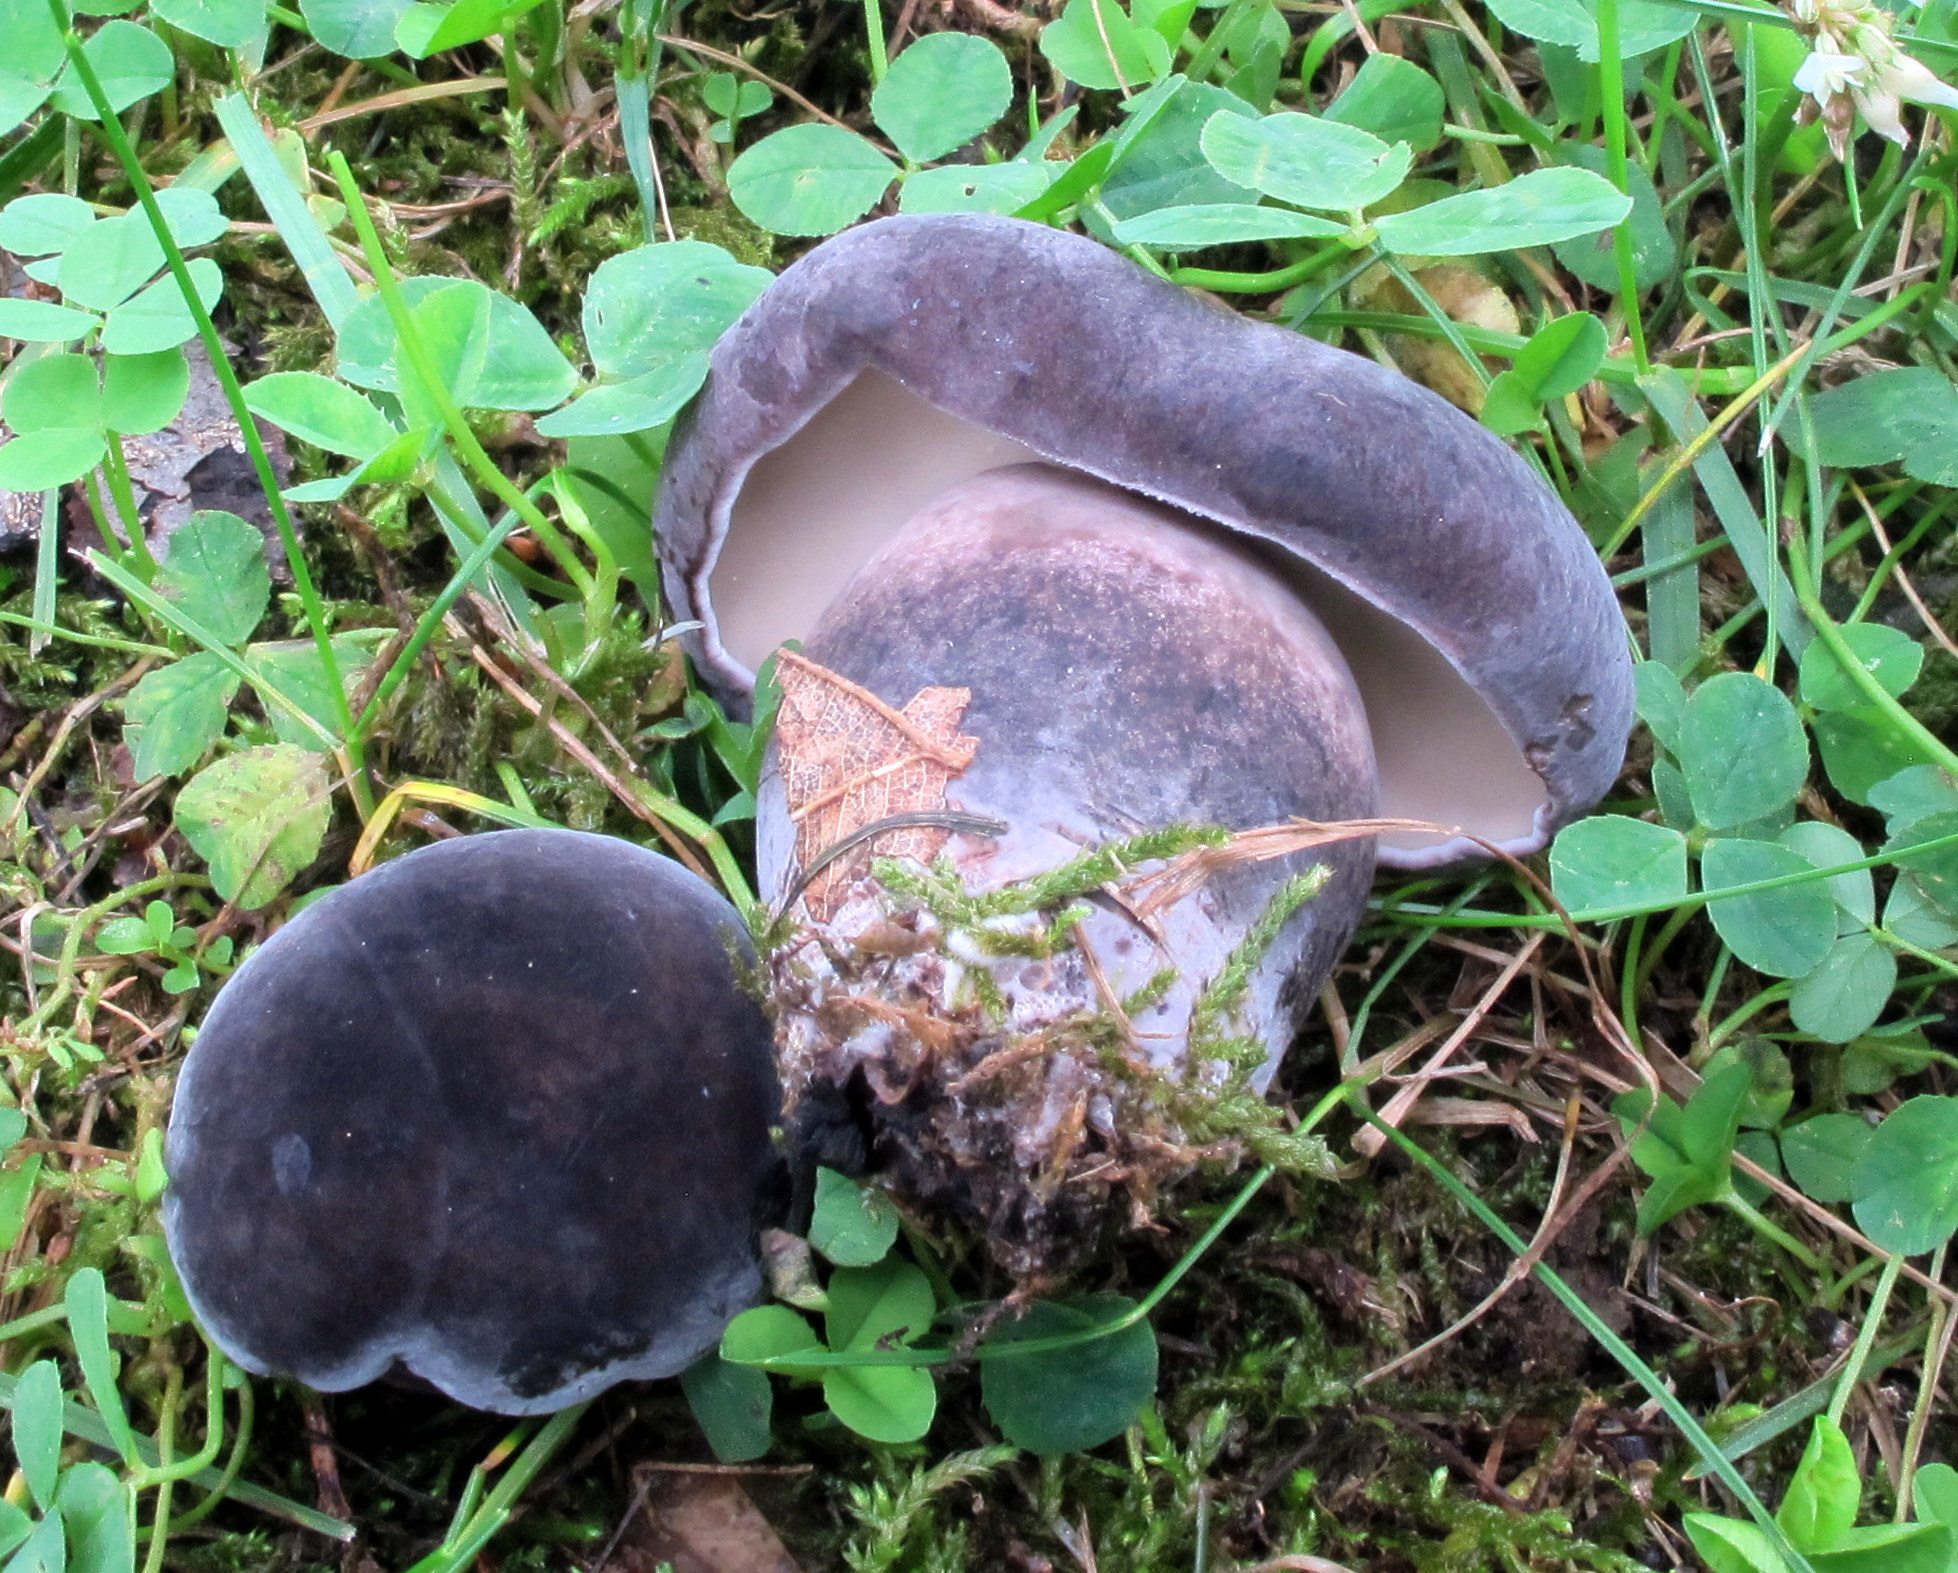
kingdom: Fungi
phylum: Basidiomycota
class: Agaricomycetes
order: Boletales
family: Boletaceae
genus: Tylopilus
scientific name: Tylopilus alboater
